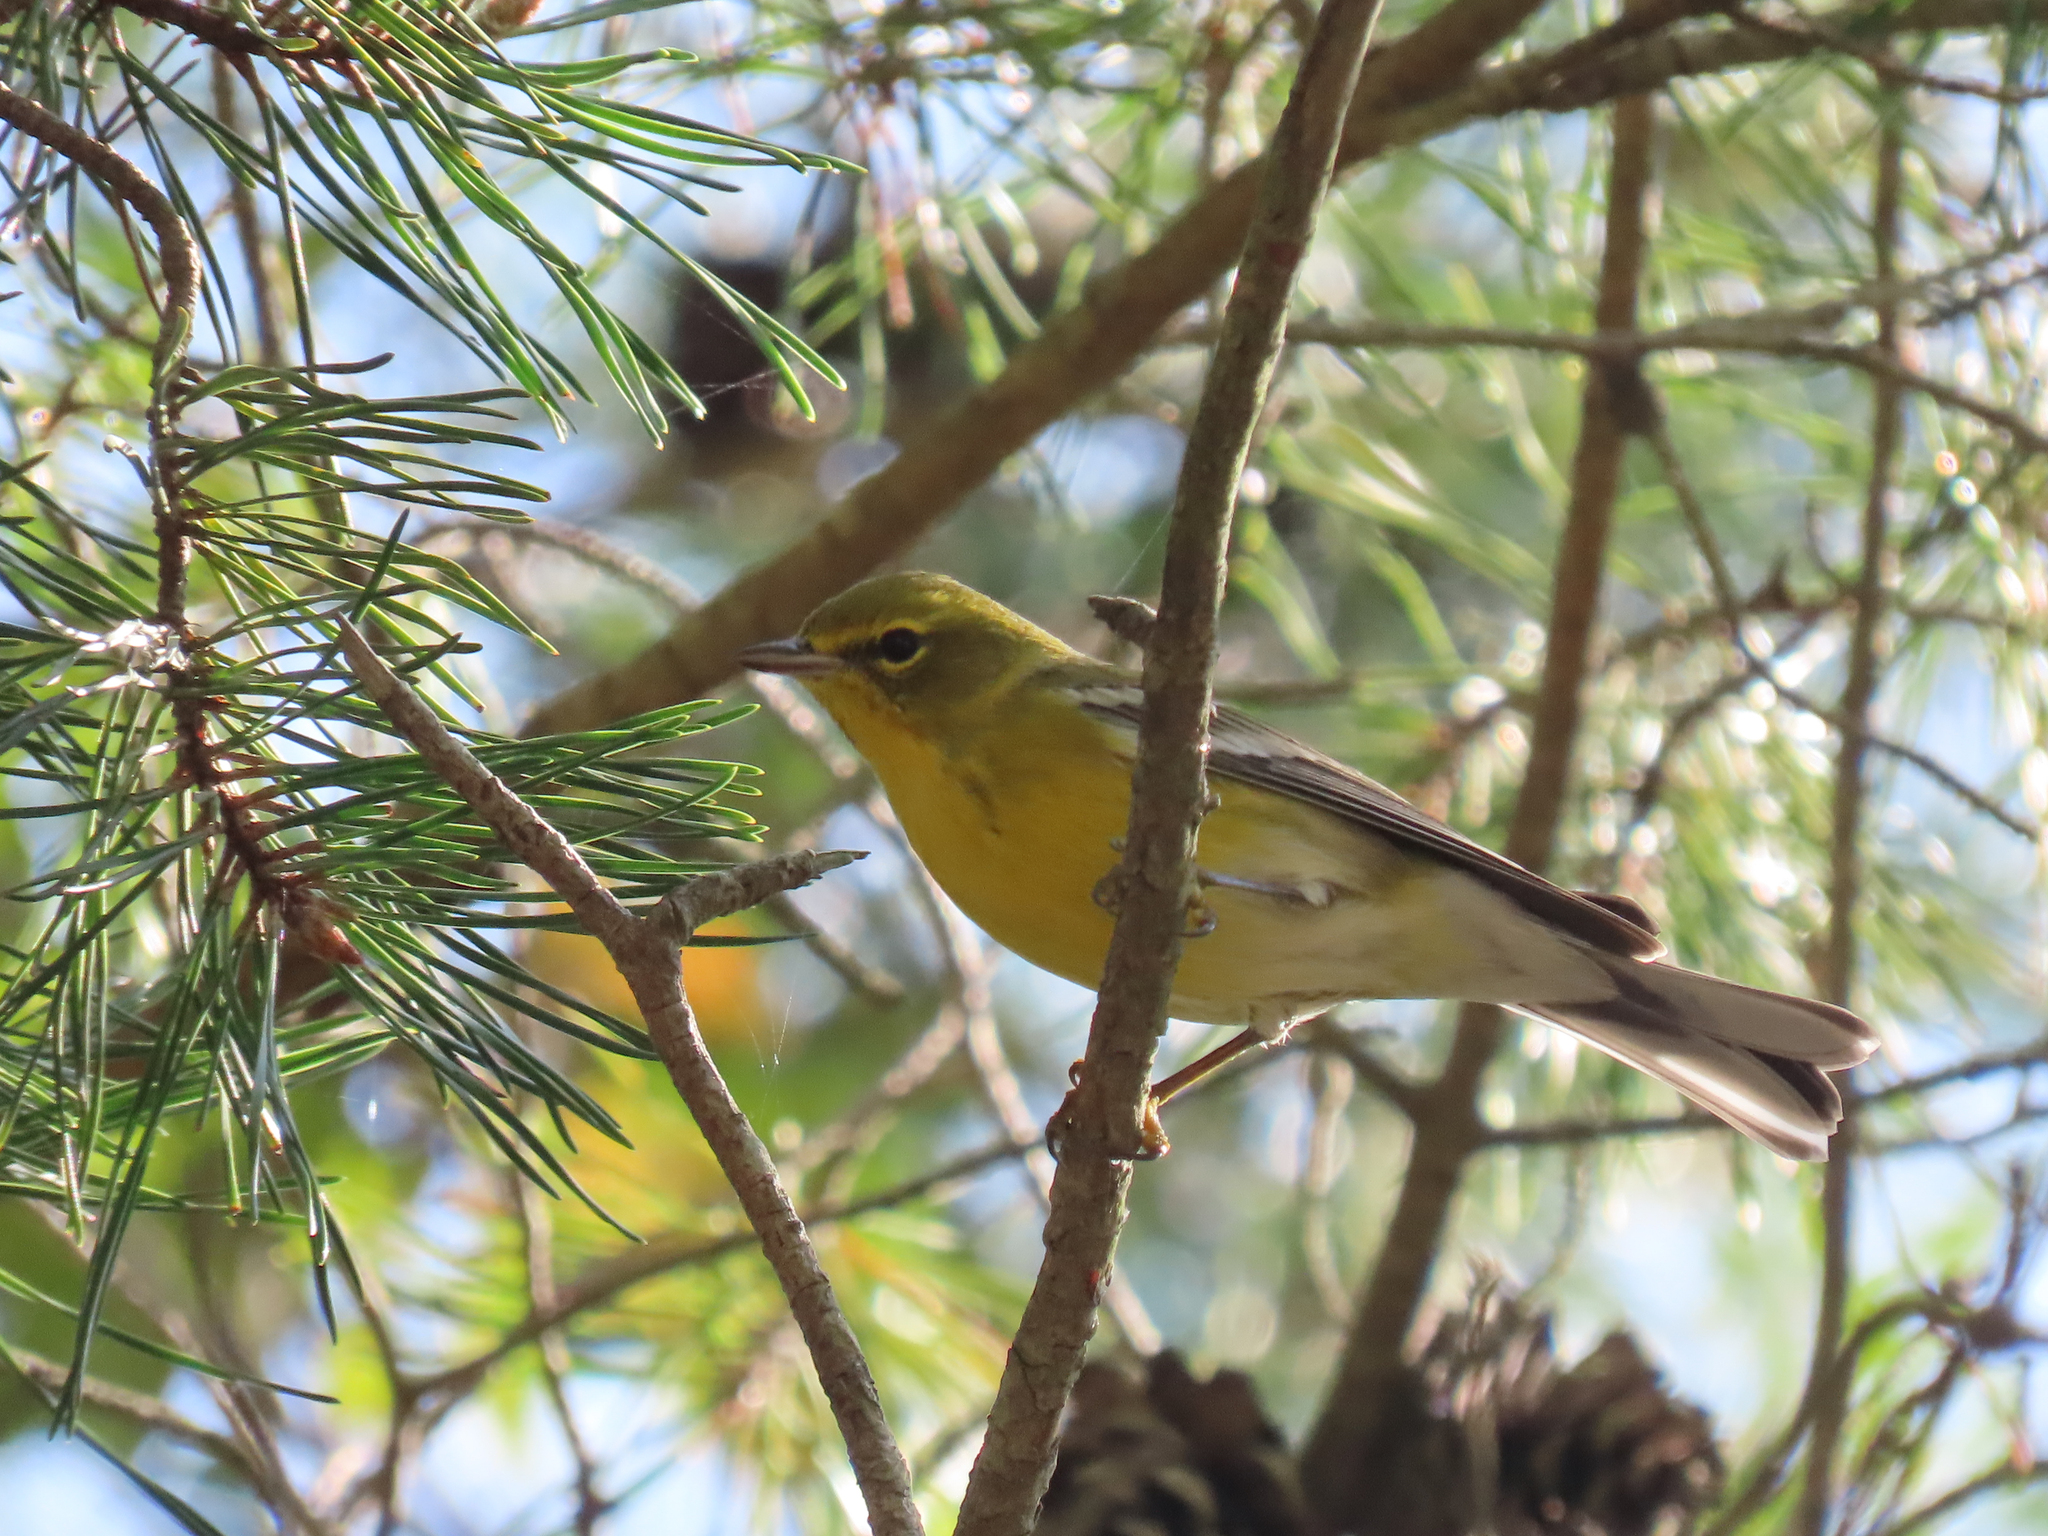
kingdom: Animalia
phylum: Chordata
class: Aves
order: Passeriformes
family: Parulidae
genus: Setophaga
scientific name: Setophaga pinus
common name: Pine warbler
